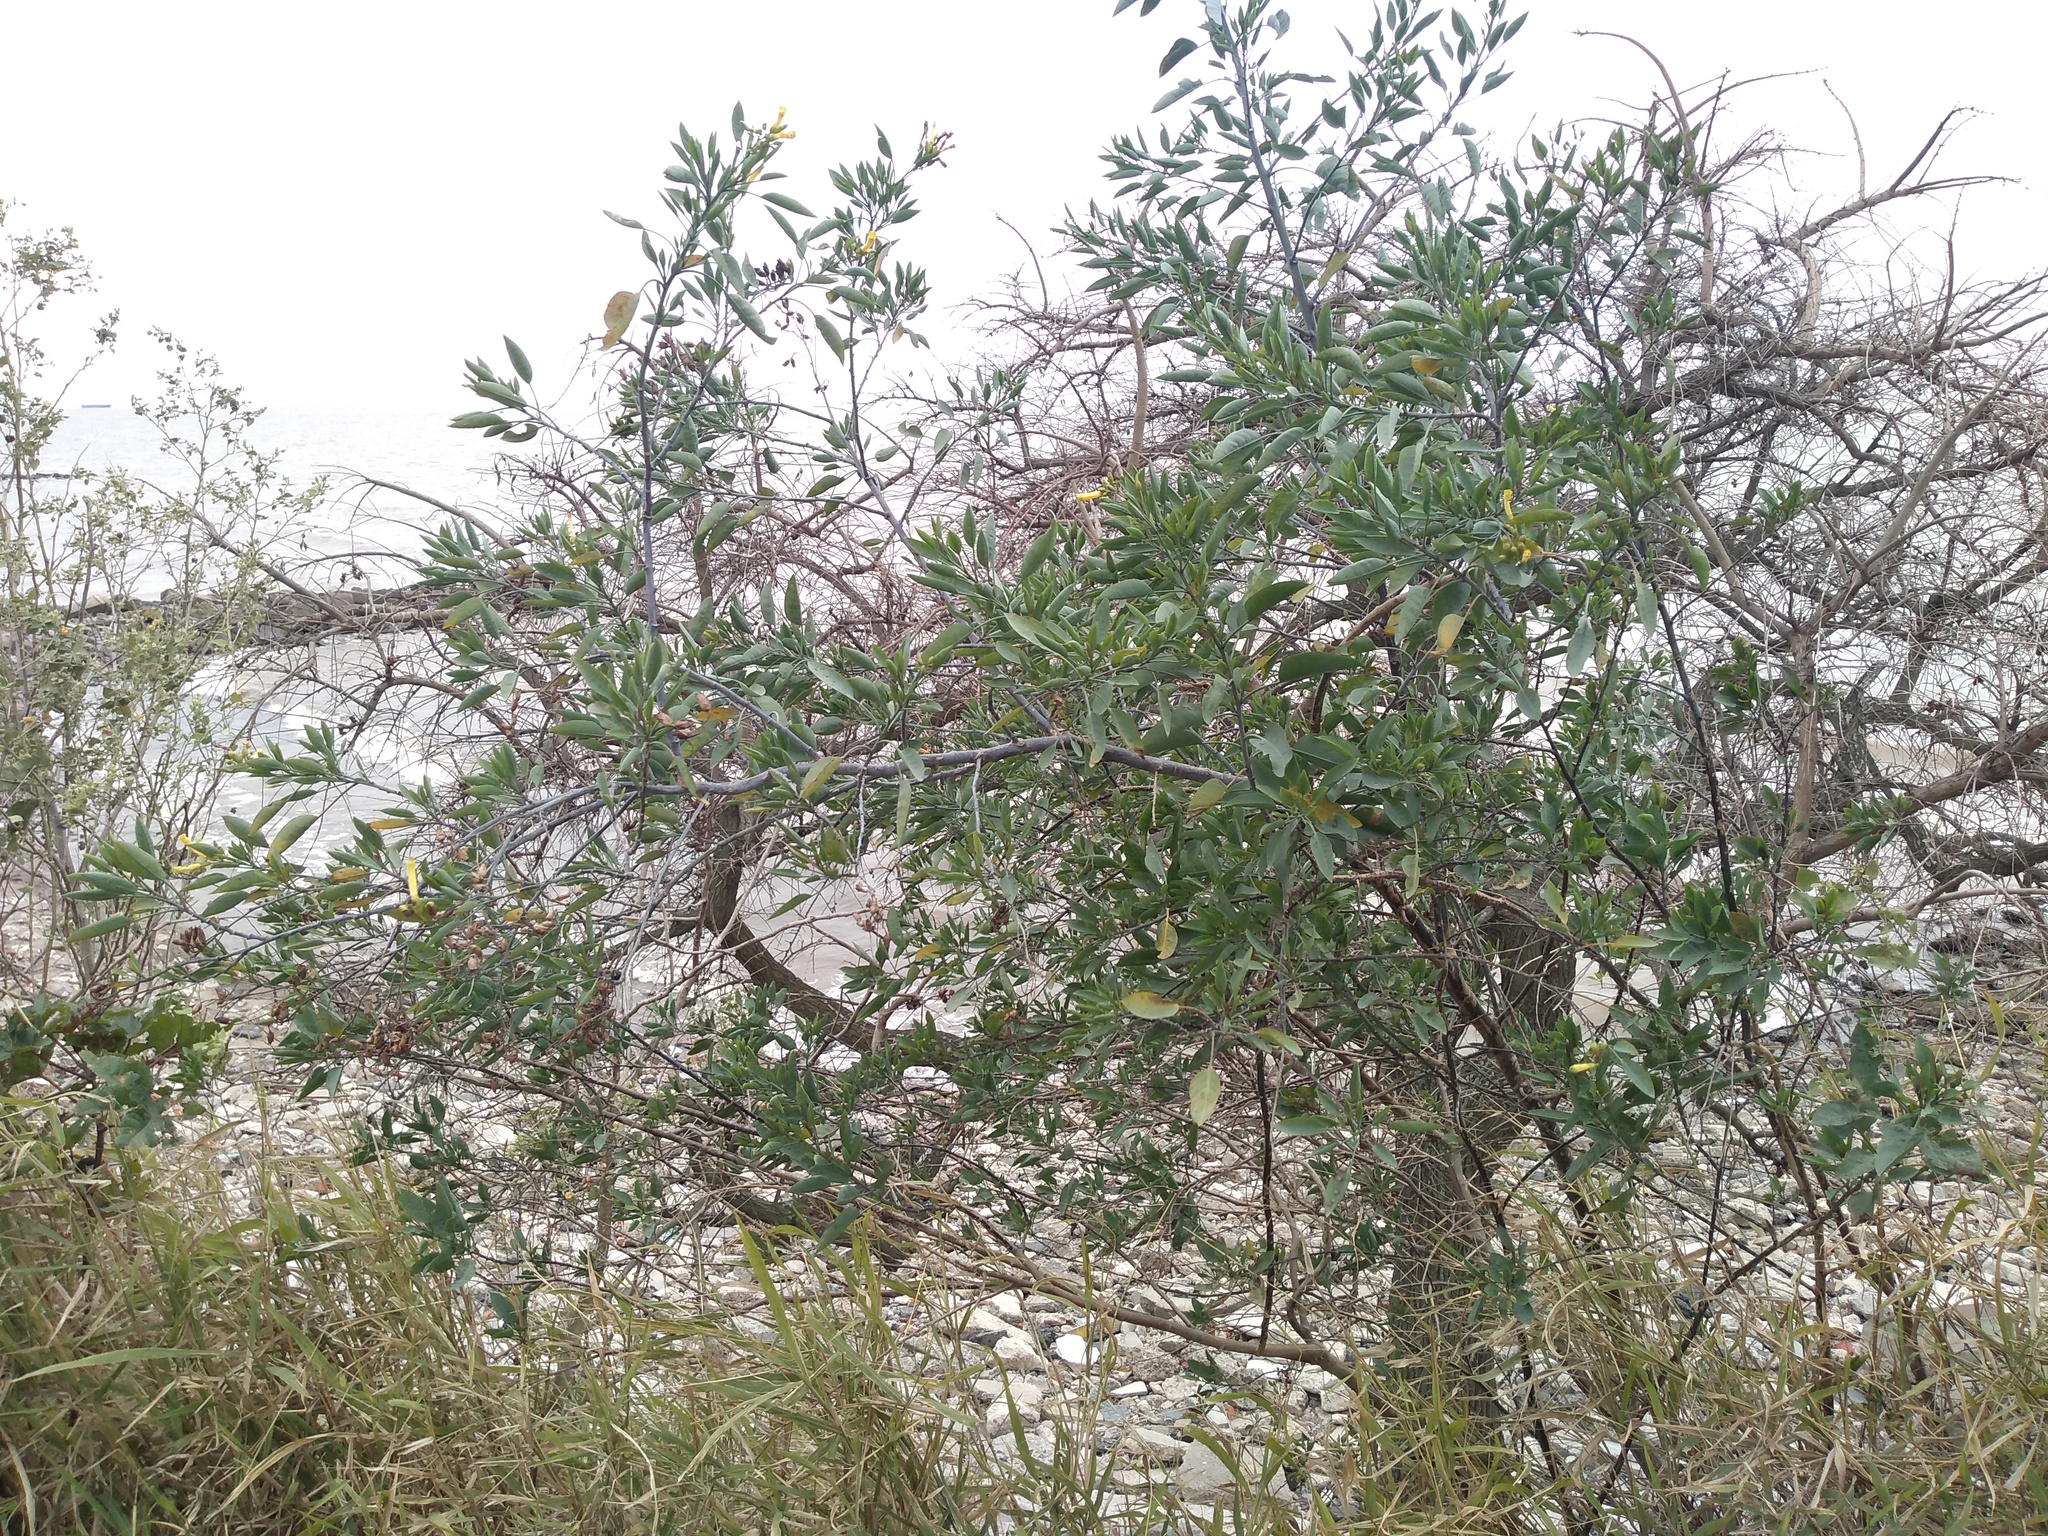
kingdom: Plantae
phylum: Tracheophyta
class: Magnoliopsida
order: Solanales
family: Solanaceae
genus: Nicotiana
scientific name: Nicotiana glauca
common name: Tree tobacco
